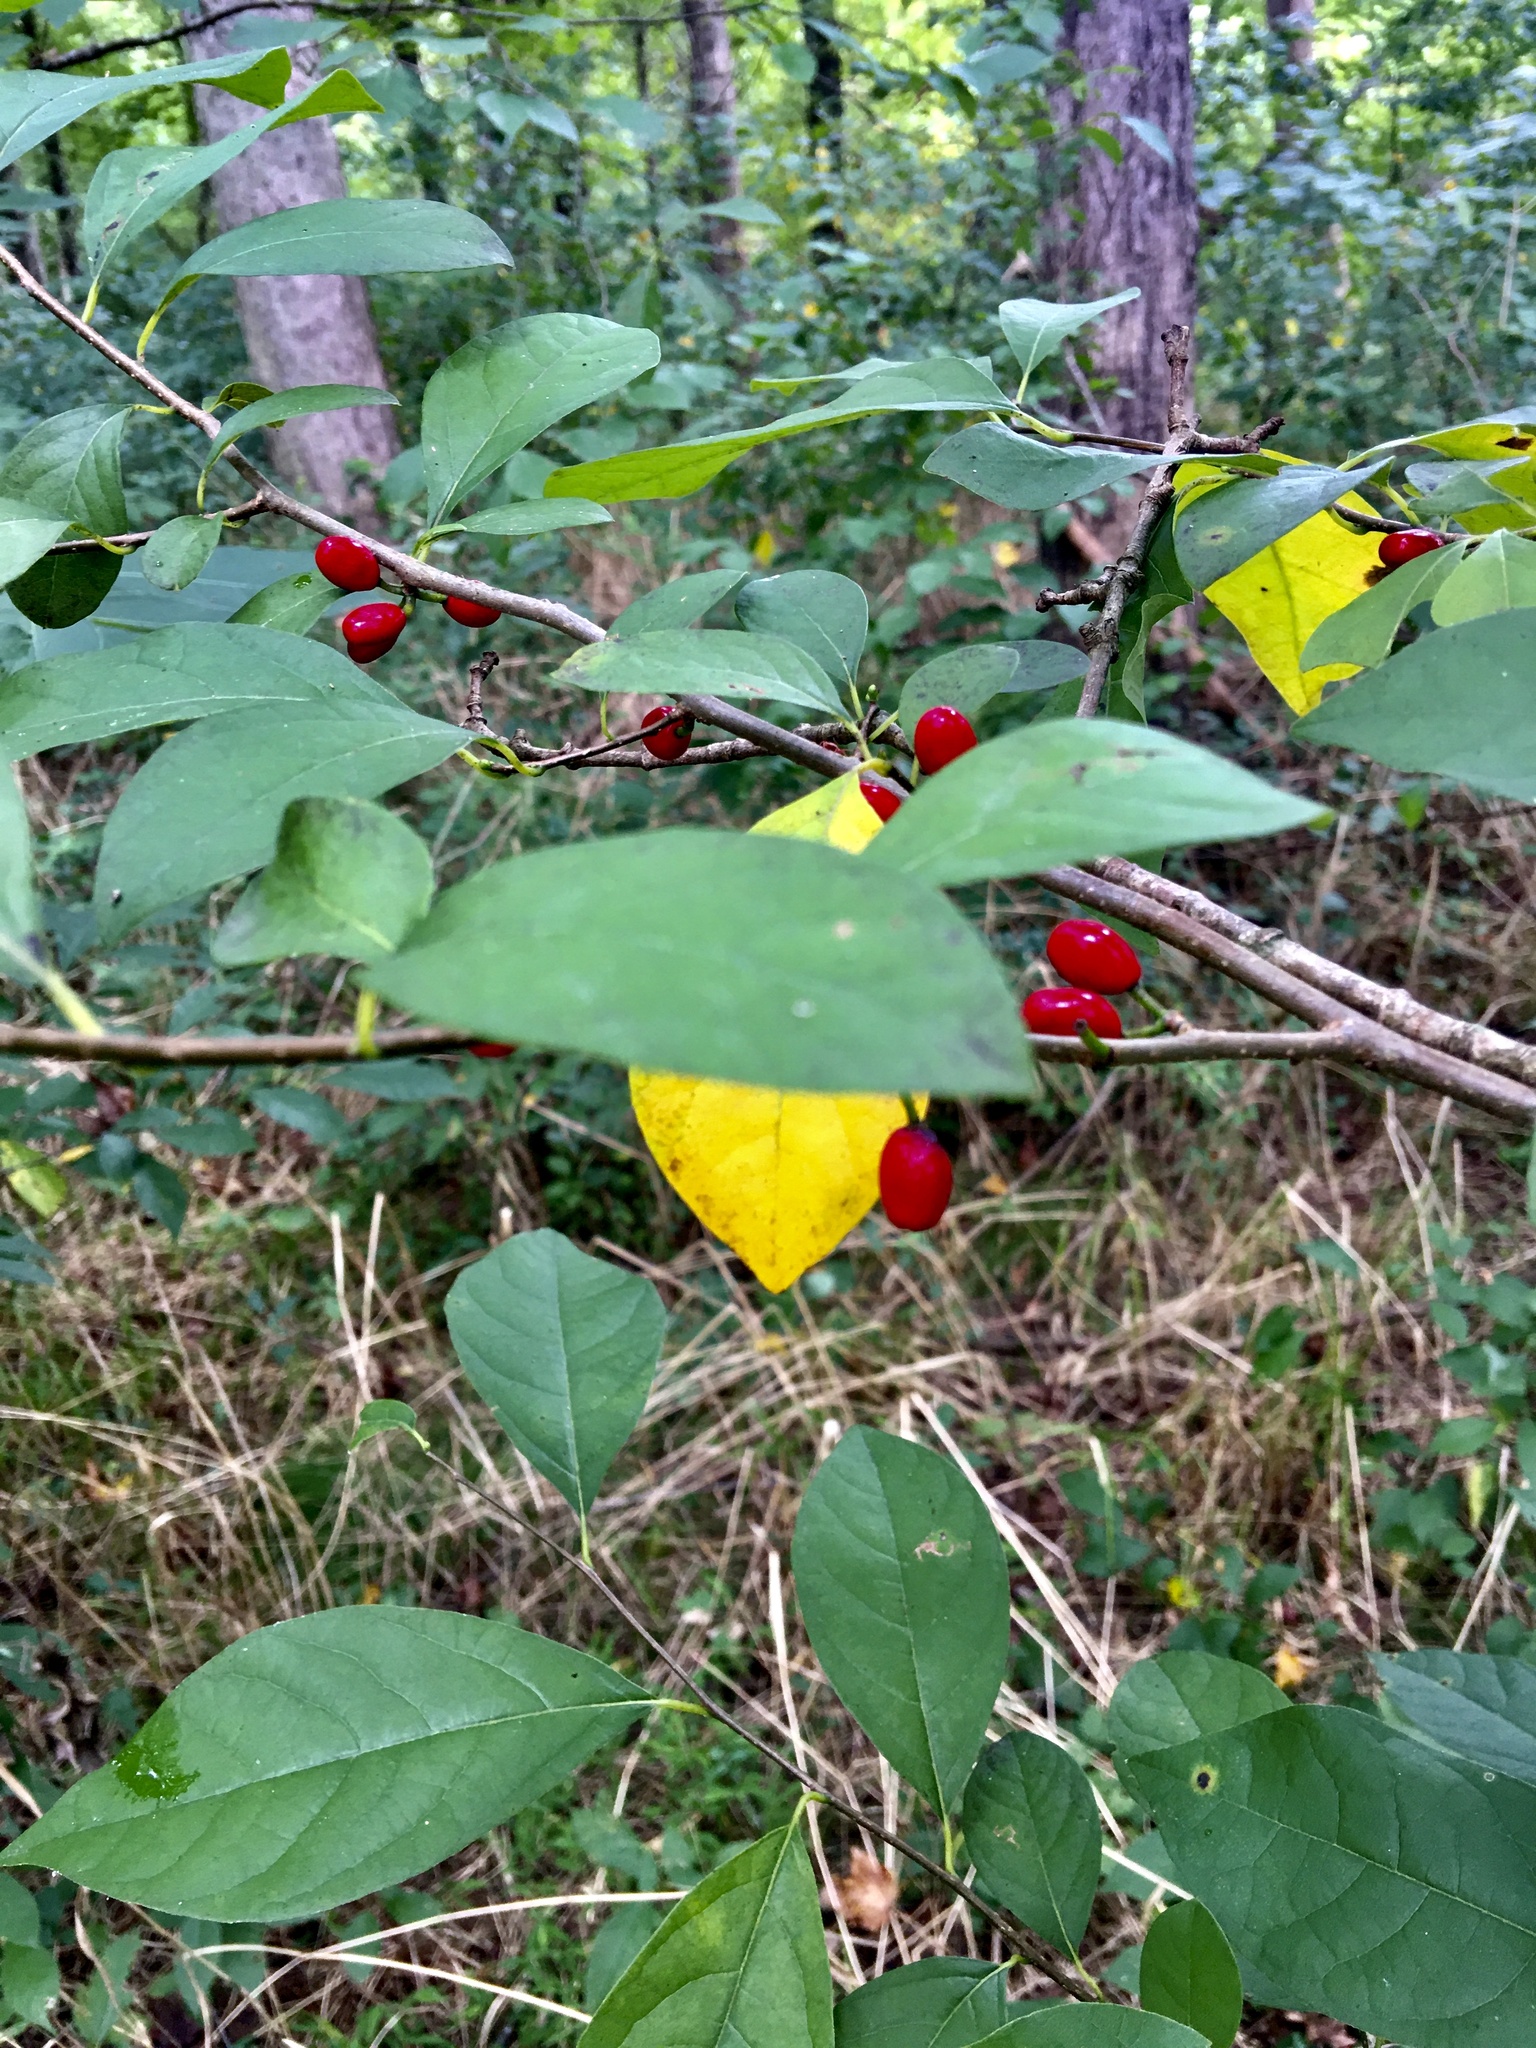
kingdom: Plantae
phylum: Tracheophyta
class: Magnoliopsida
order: Laurales
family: Lauraceae
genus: Lindera
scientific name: Lindera benzoin
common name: Spicebush
